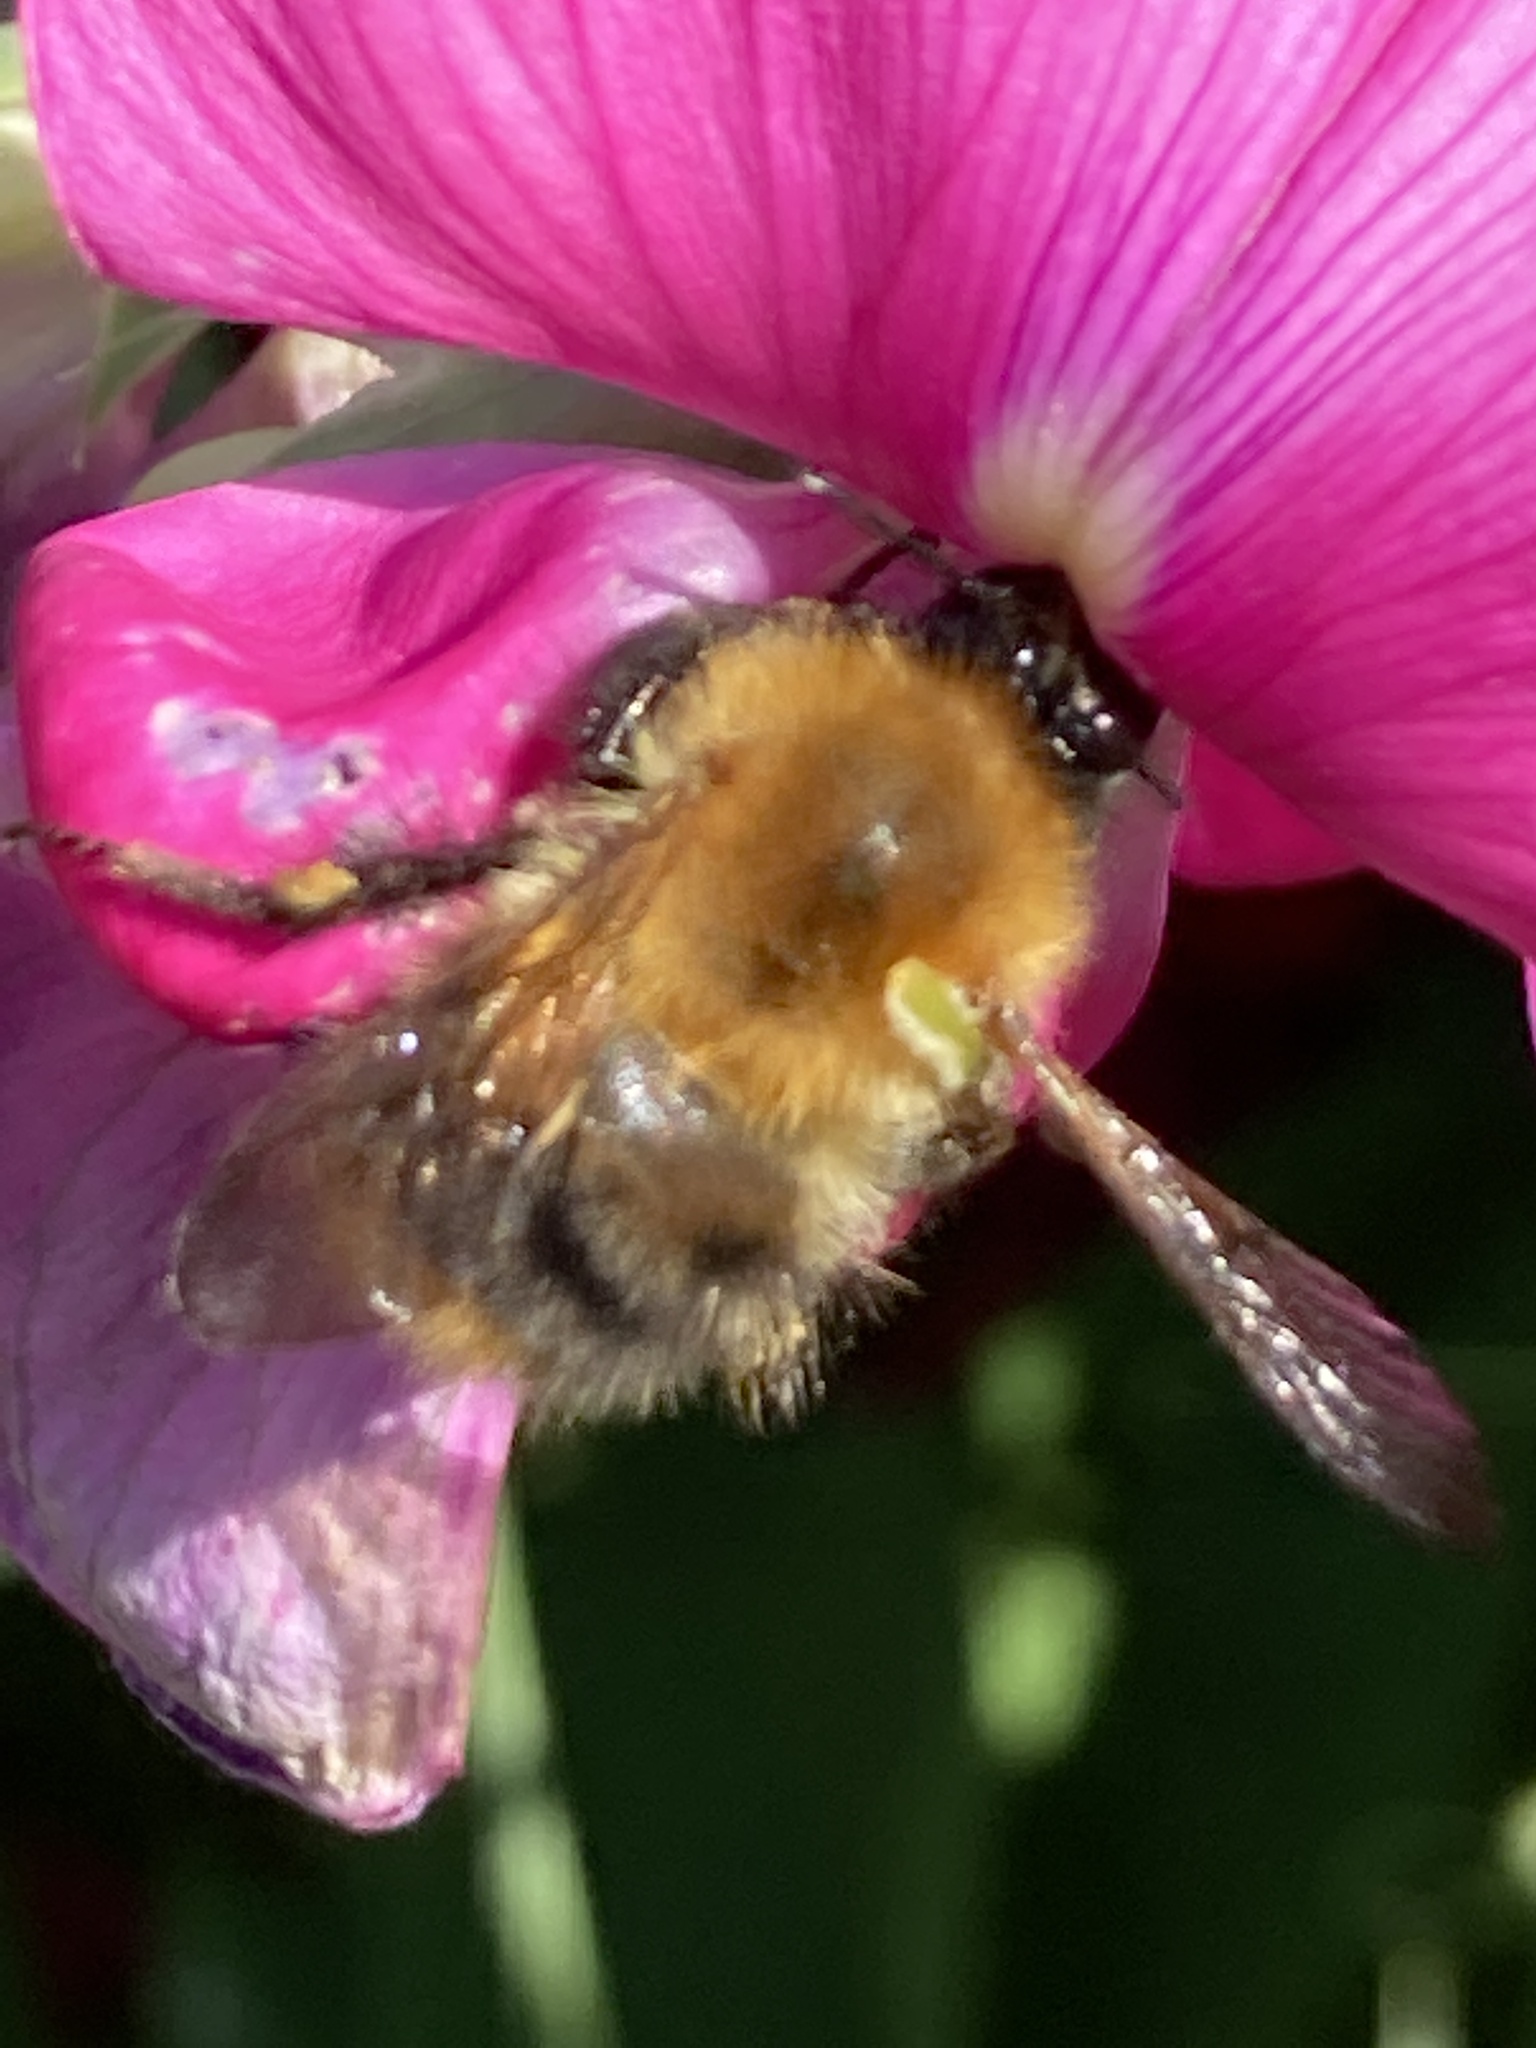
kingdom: Animalia
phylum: Arthropoda
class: Insecta
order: Hymenoptera
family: Apidae
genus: Bombus
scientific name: Bombus pascuorum
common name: Common carder bee
